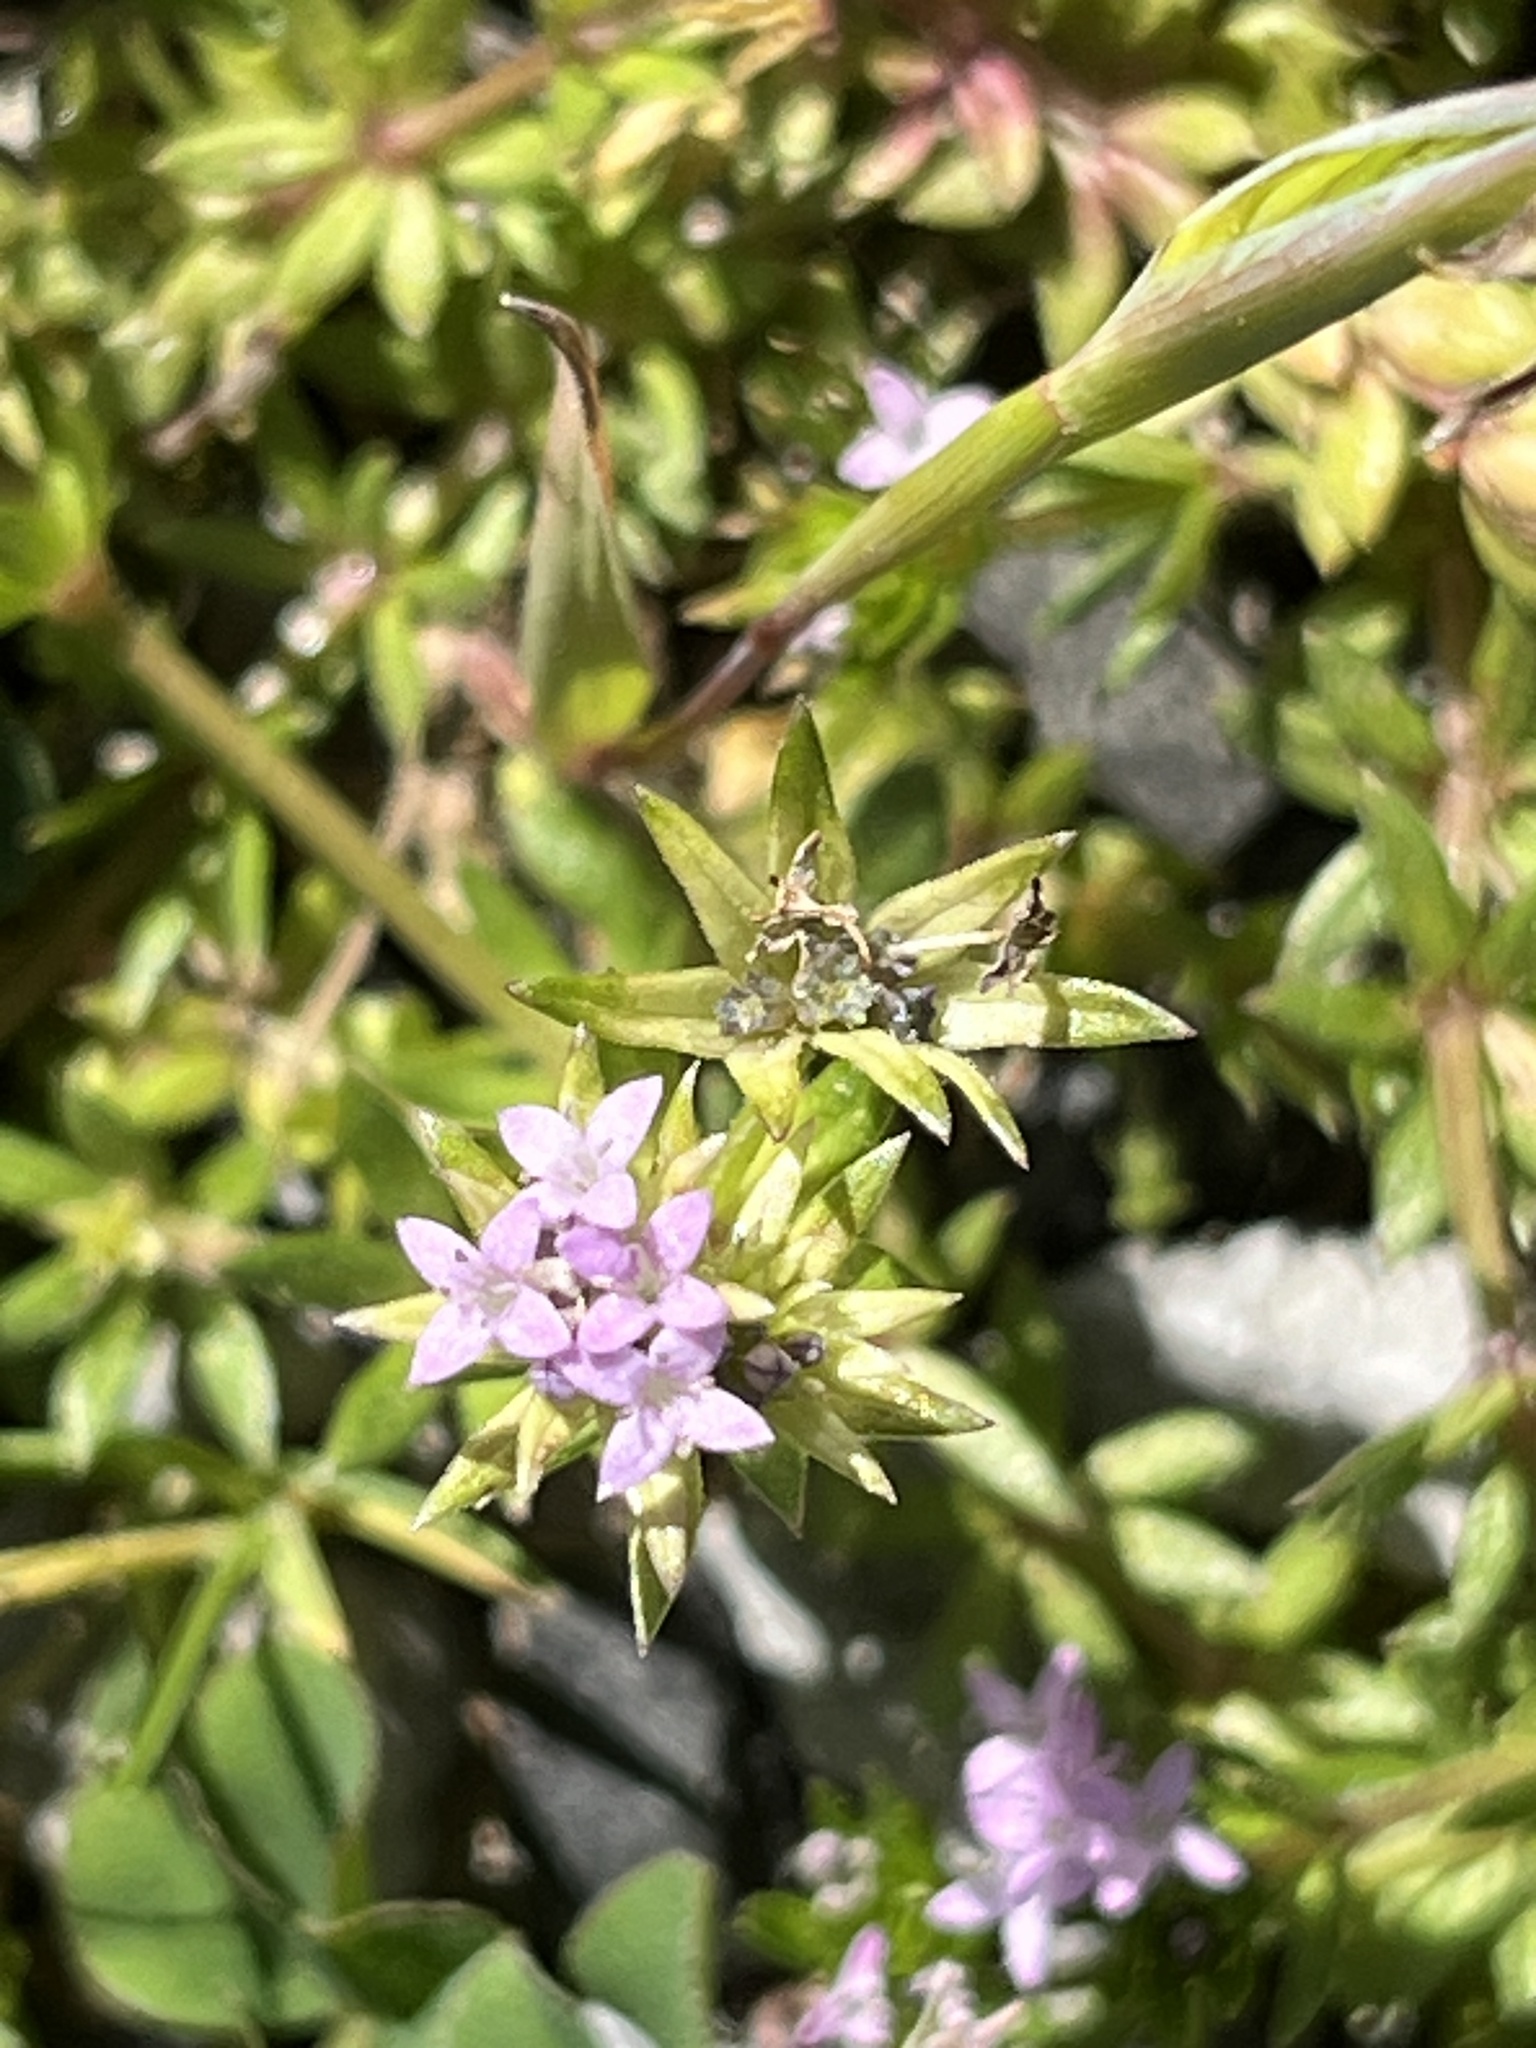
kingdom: Plantae
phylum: Tracheophyta
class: Magnoliopsida
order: Gentianales
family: Rubiaceae
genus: Sherardia
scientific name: Sherardia arvensis
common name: Field madder
